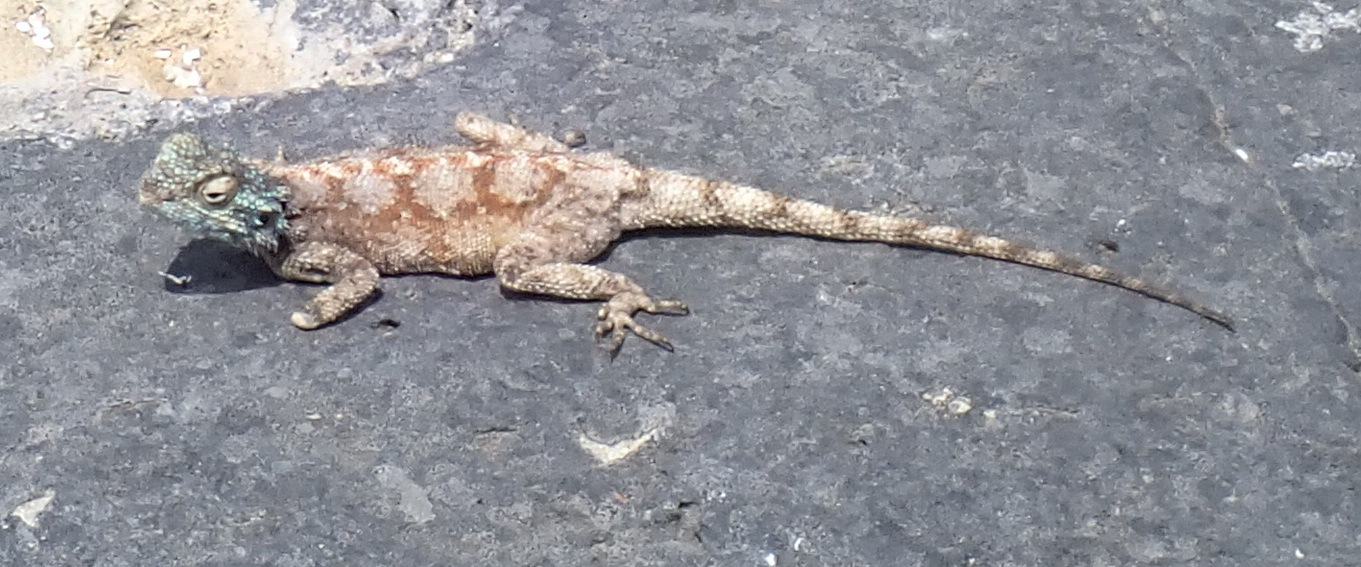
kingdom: Animalia
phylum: Chordata
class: Squamata
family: Agamidae
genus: Agama
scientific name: Agama atra
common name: Southern african rock agama
